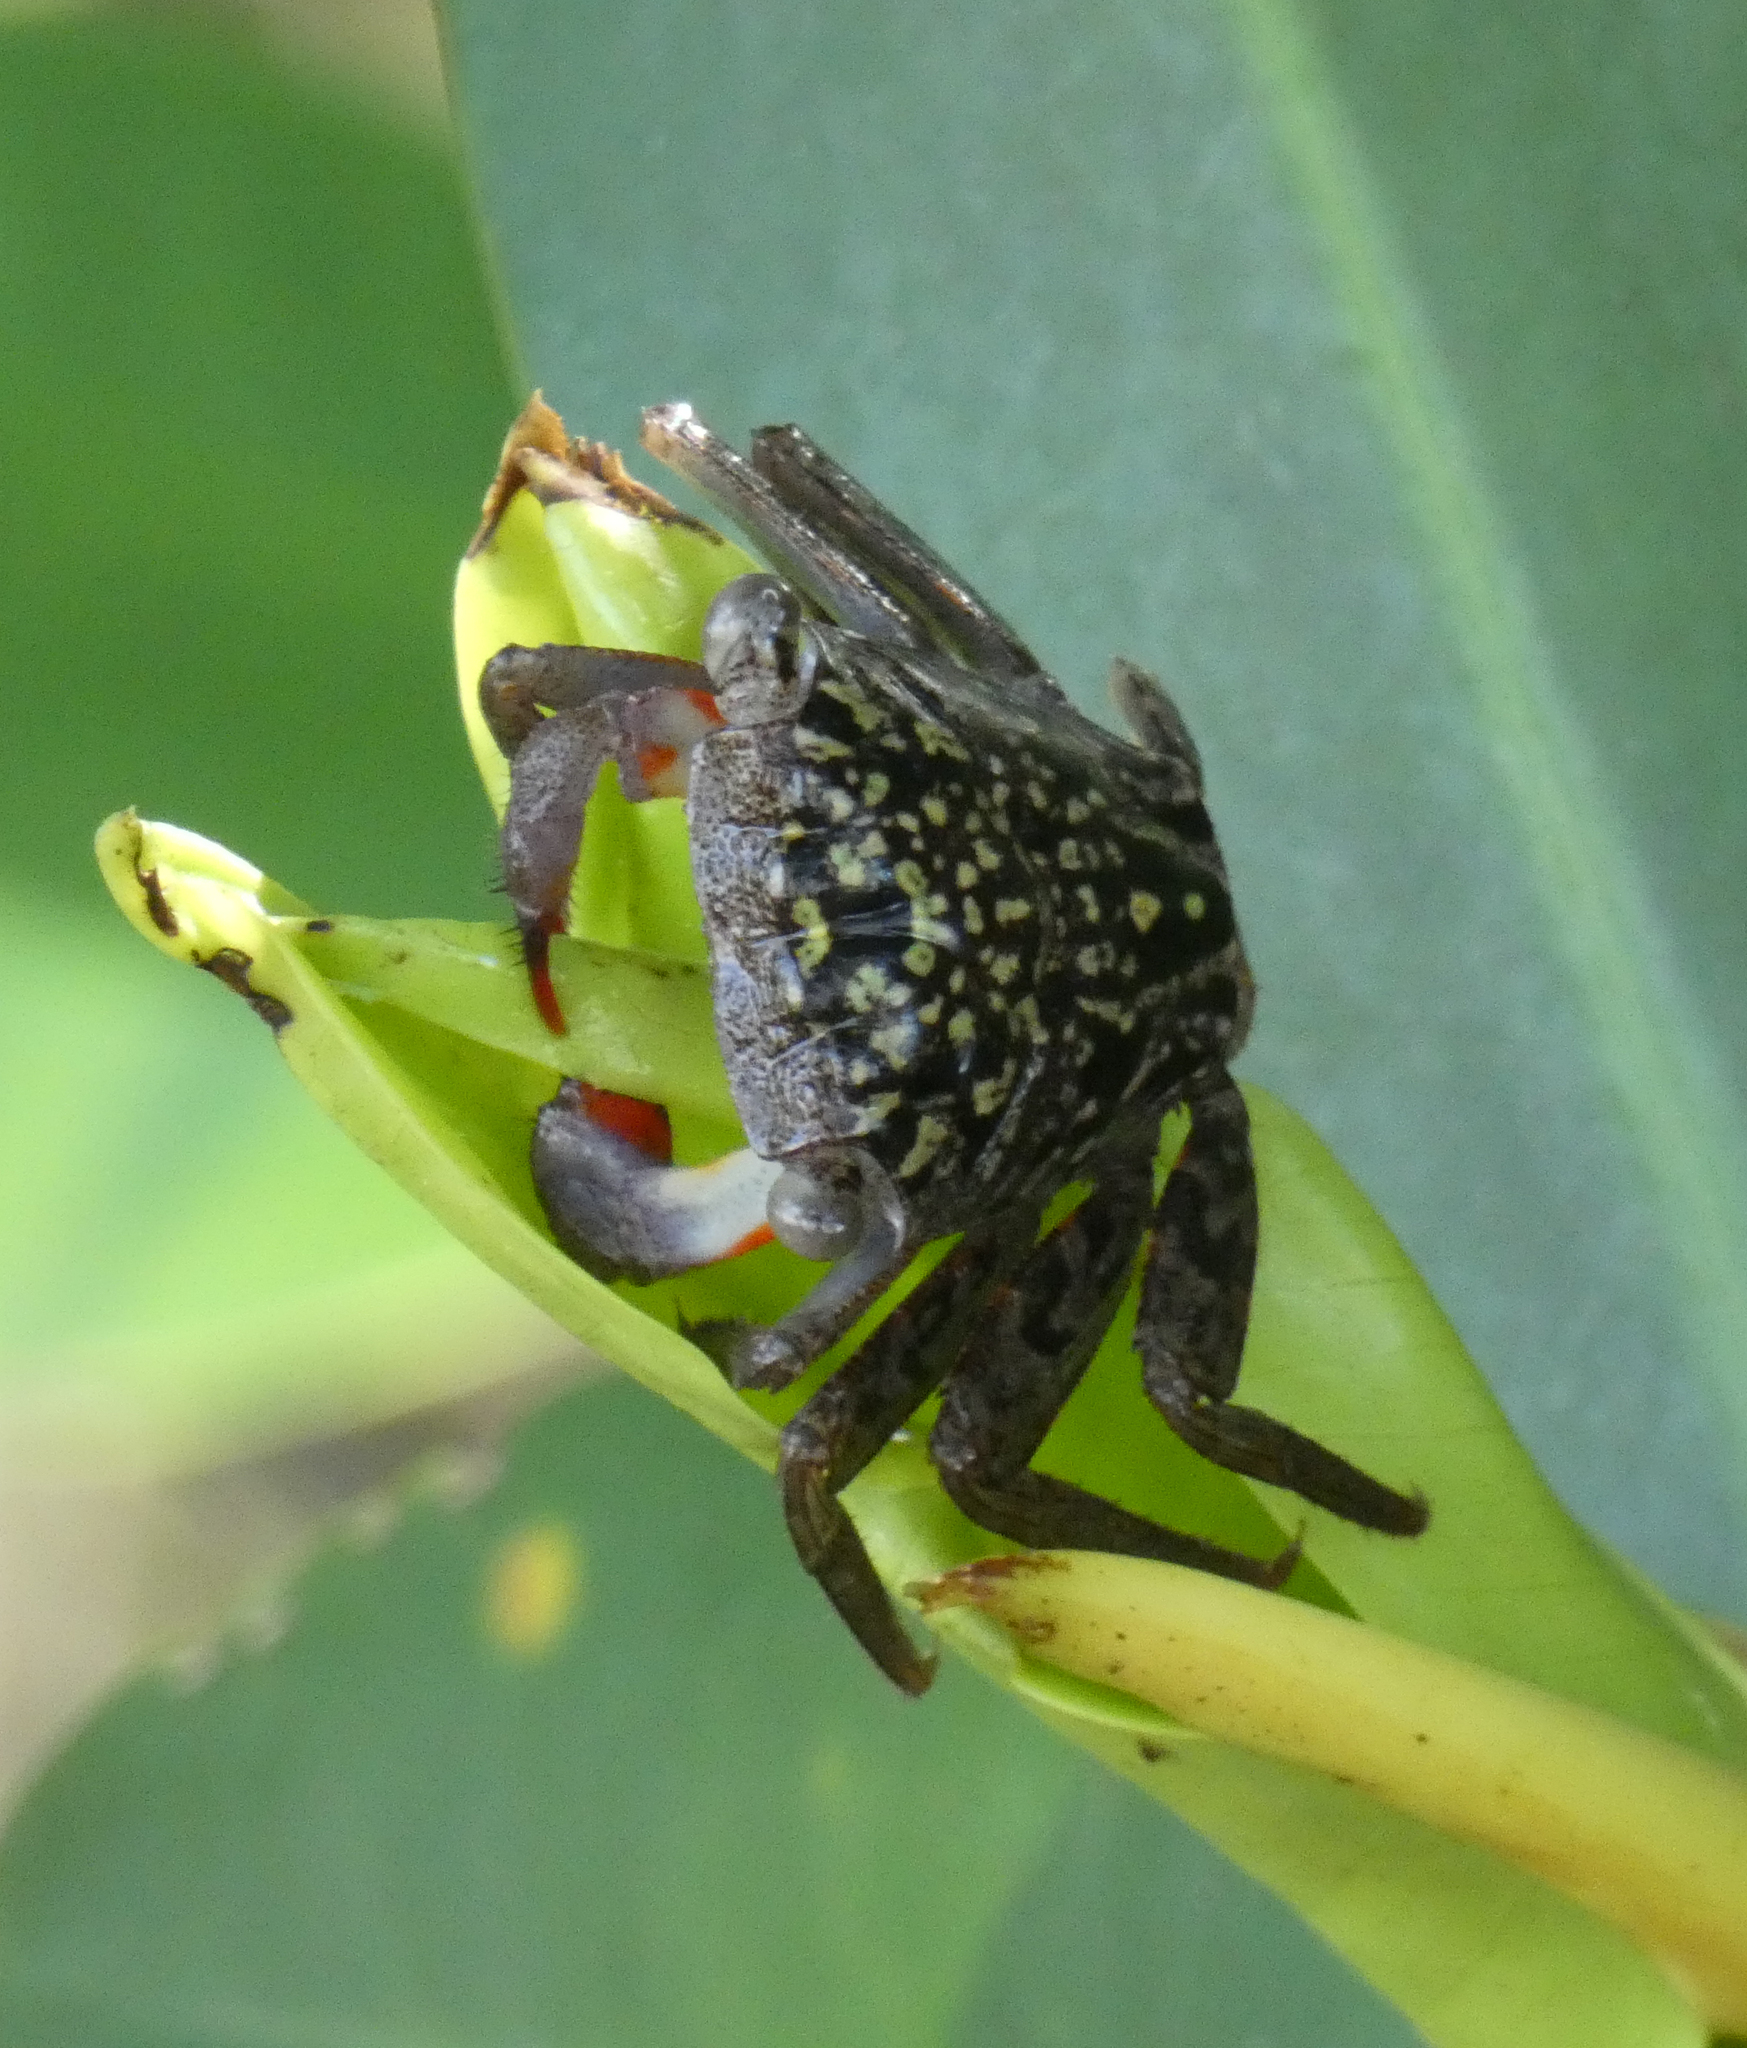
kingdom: Animalia
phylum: Arthropoda
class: Malacostraca
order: Decapoda
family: Sesarmidae
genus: Aratus
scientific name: Aratus pisonii
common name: Mangrove crab
